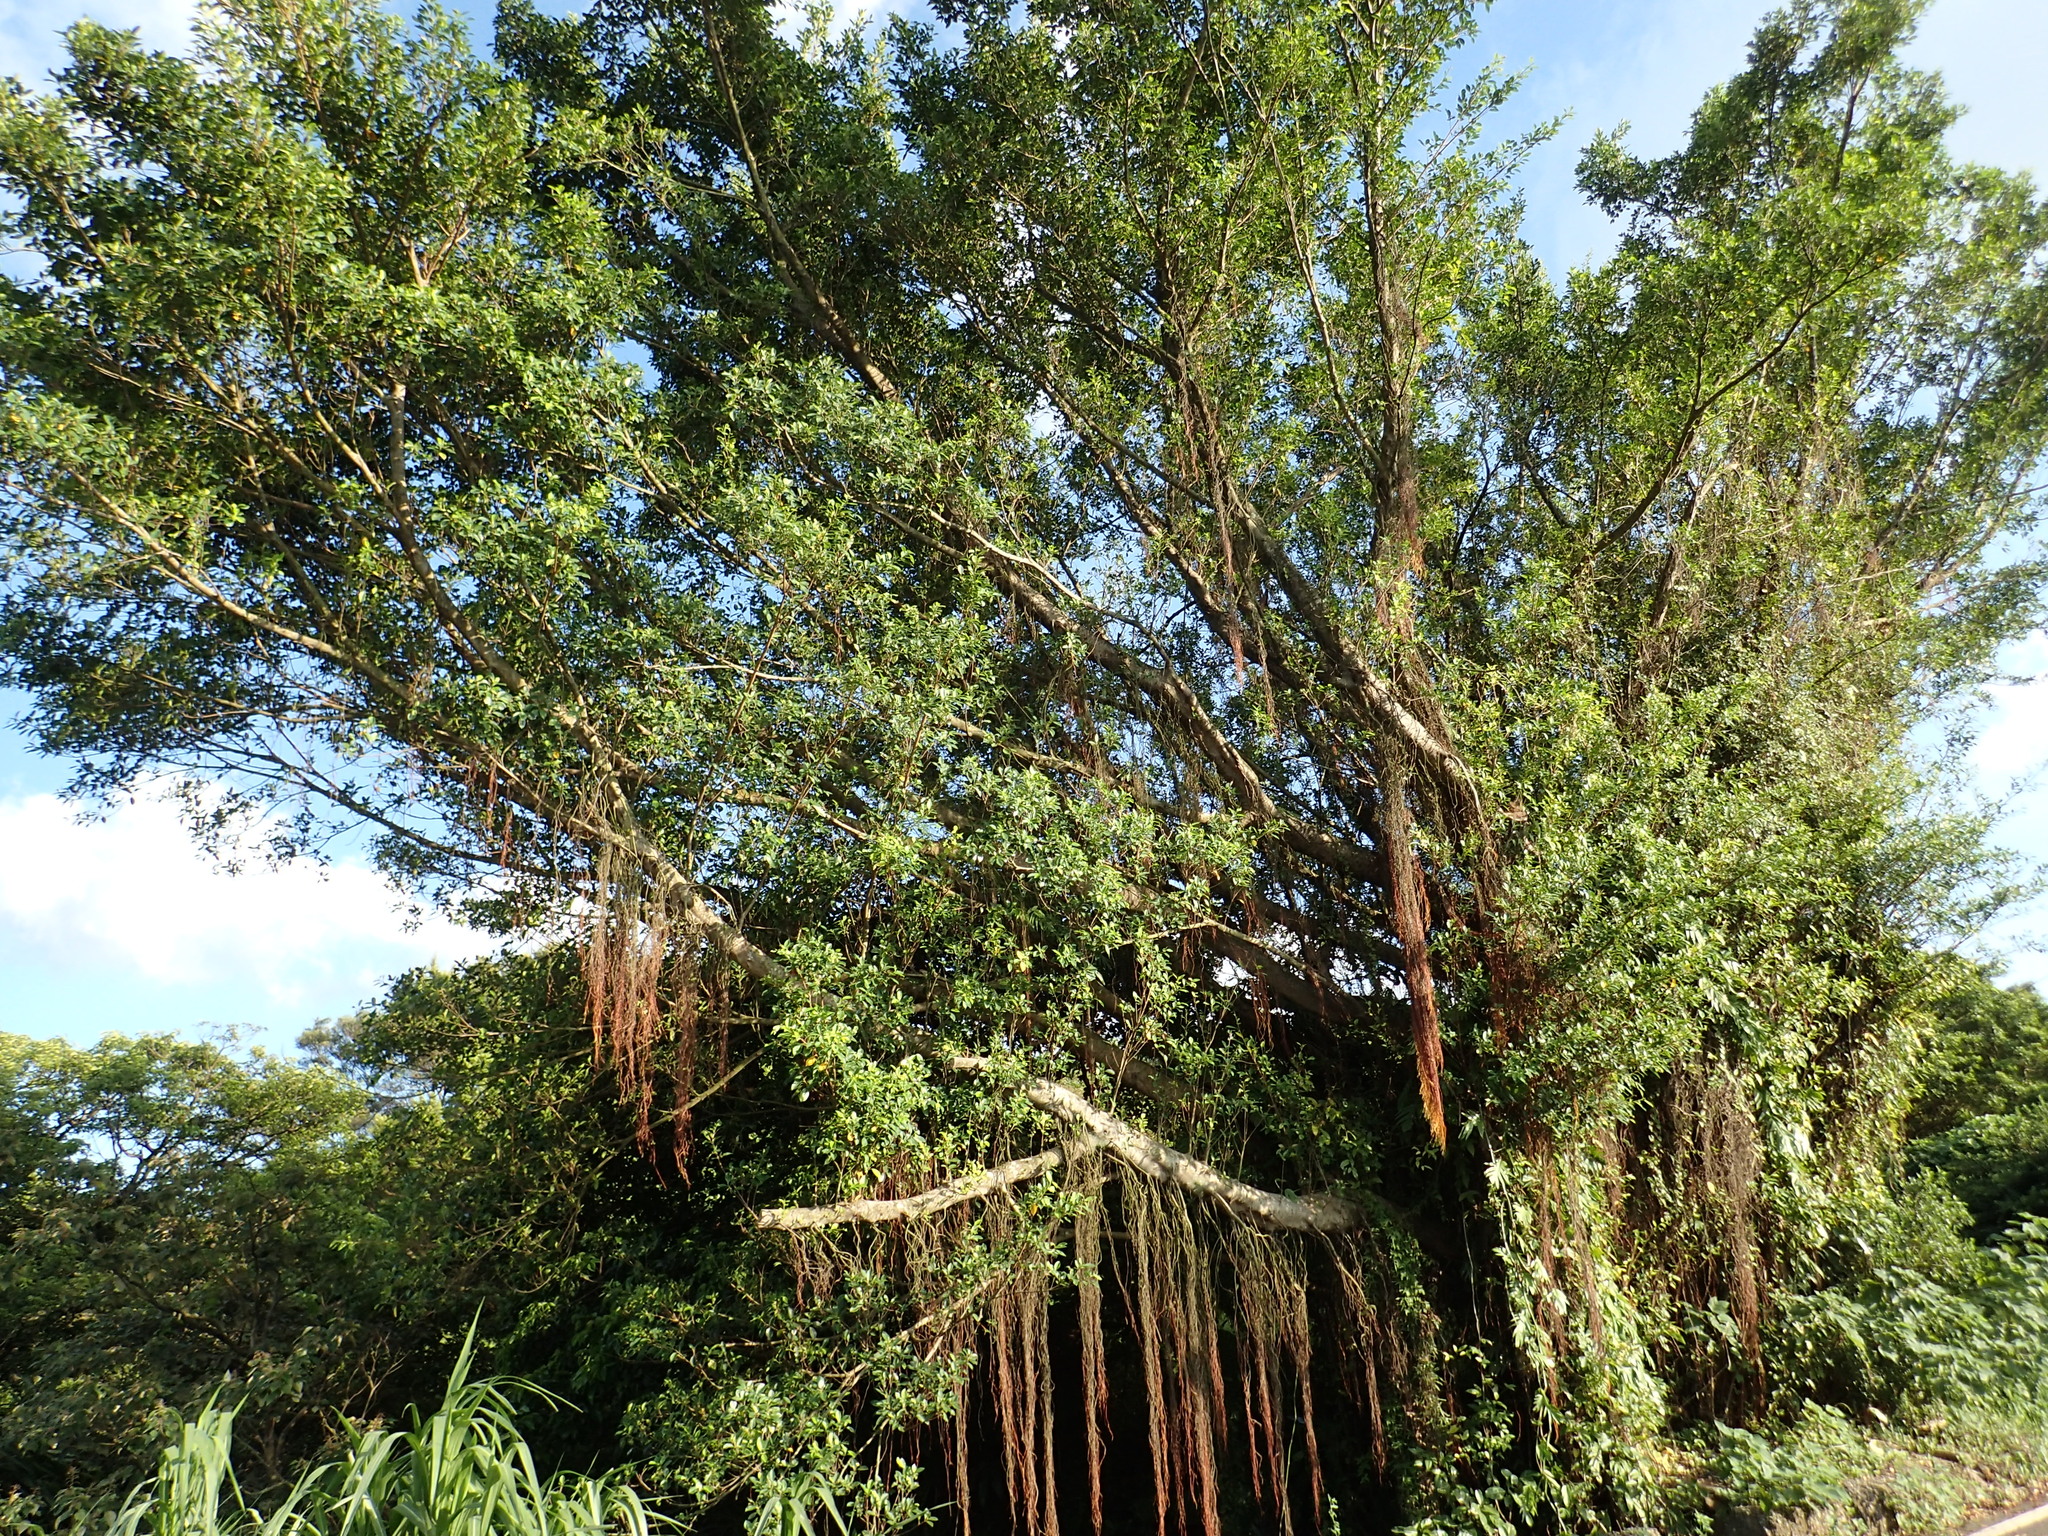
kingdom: Plantae
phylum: Tracheophyta
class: Magnoliopsida
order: Rosales
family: Moraceae
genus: Ficus
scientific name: Ficus microcarpa
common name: Chinese banyan
